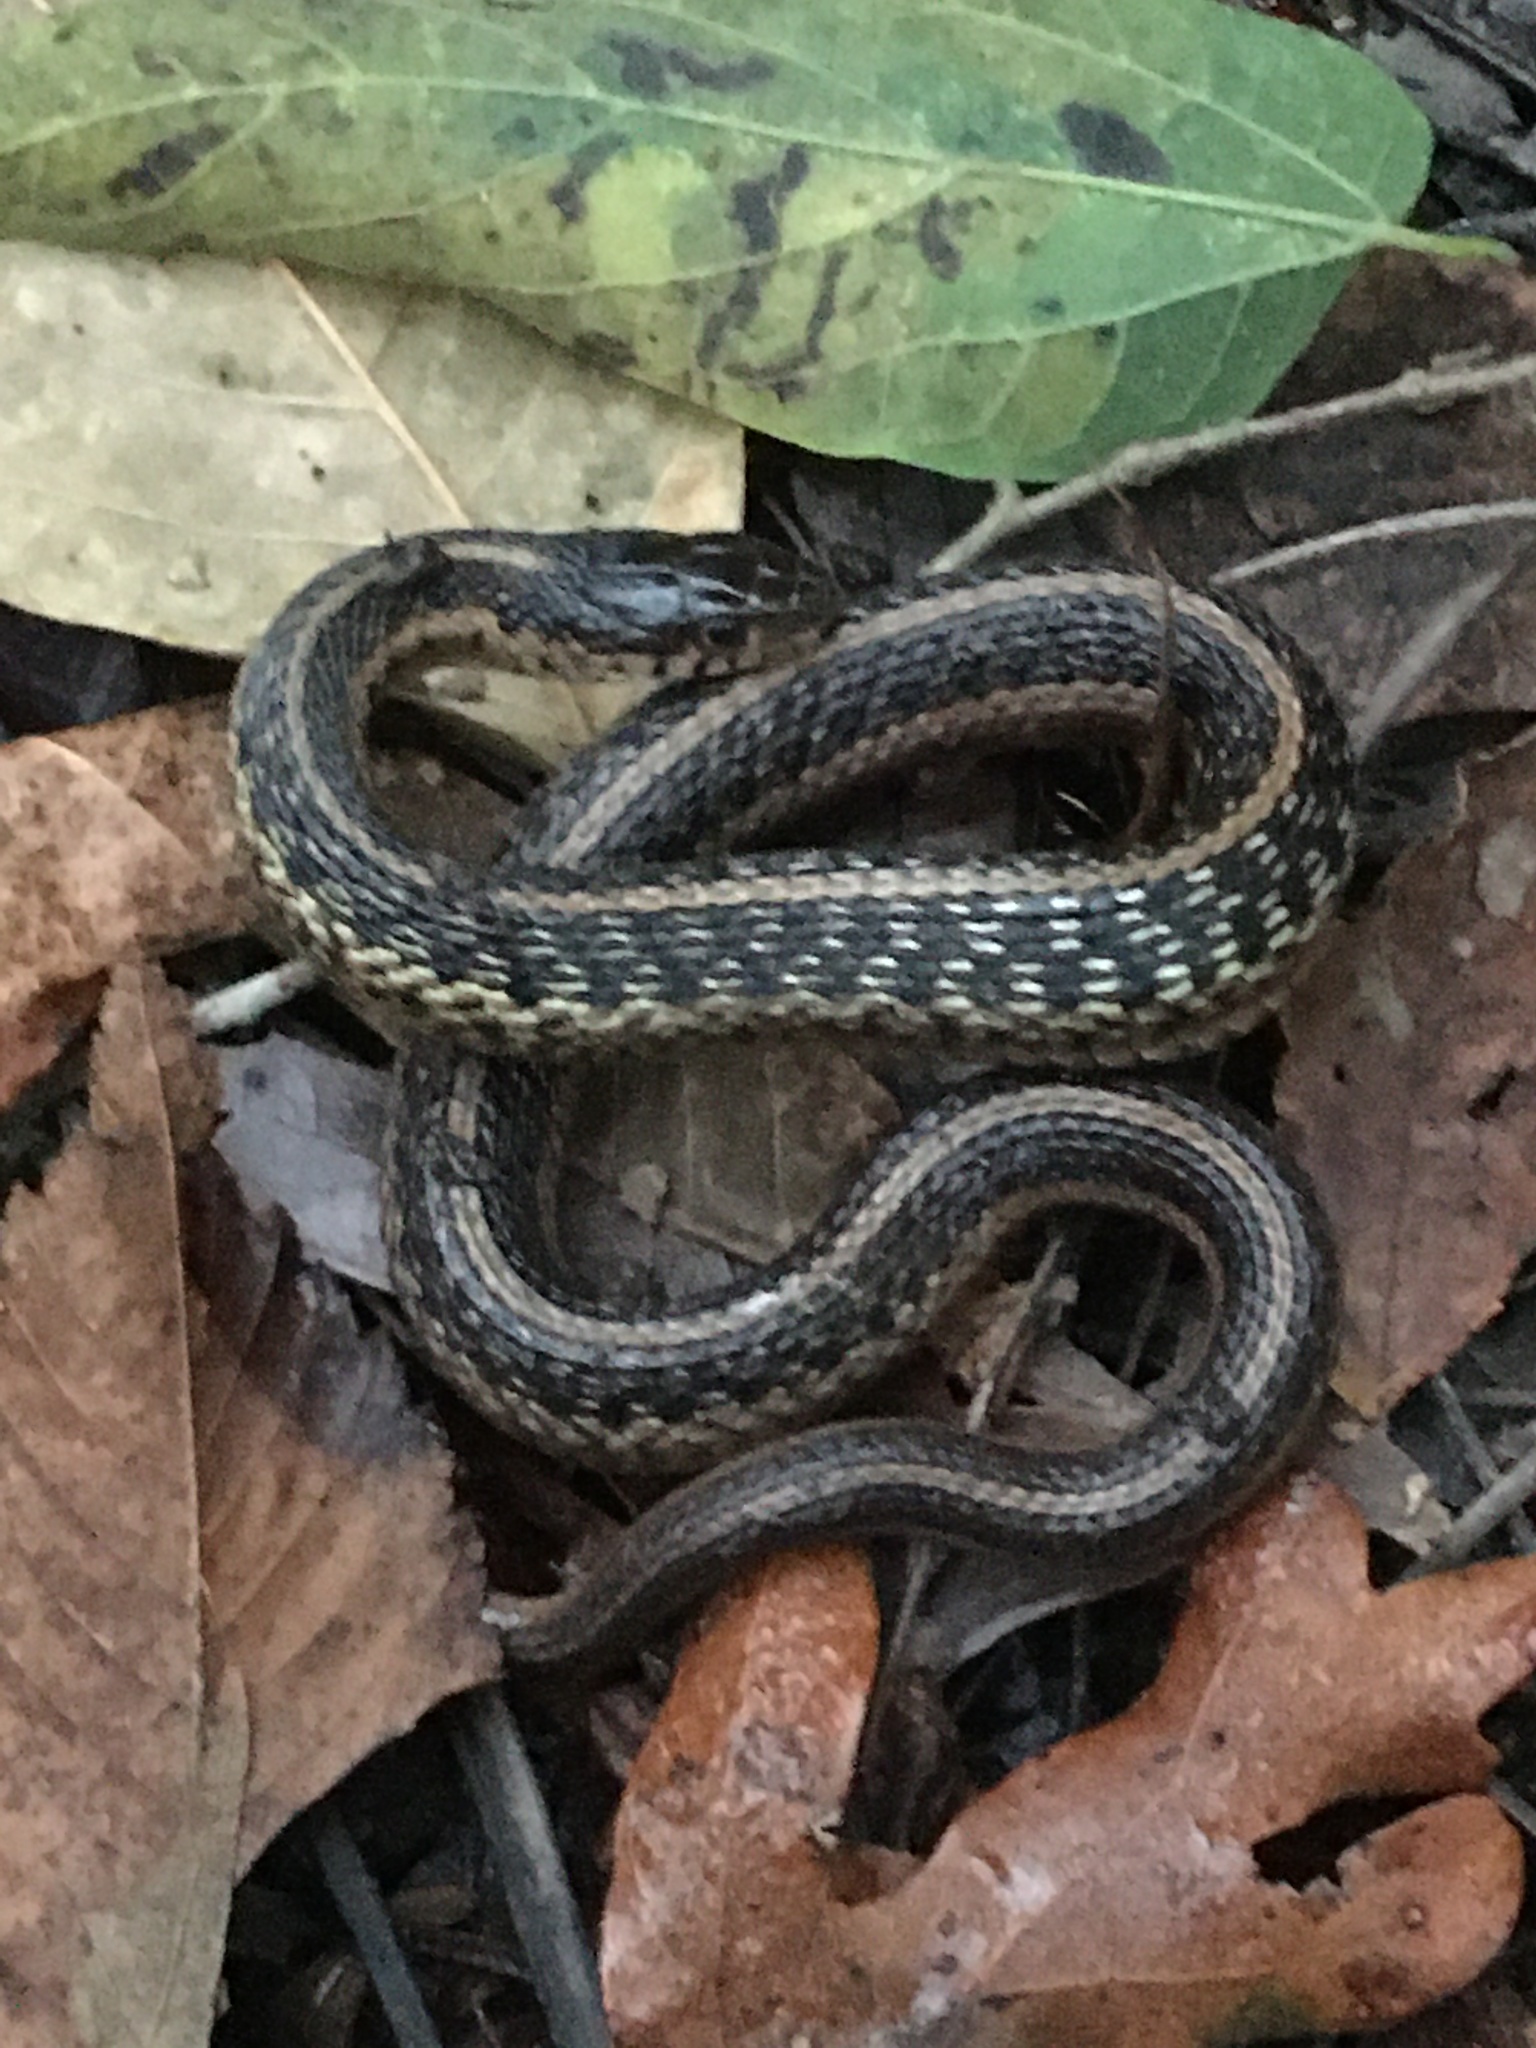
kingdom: Animalia
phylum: Chordata
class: Squamata
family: Colubridae
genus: Thamnophis
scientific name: Thamnophis sirtalis
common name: Common garter snake
